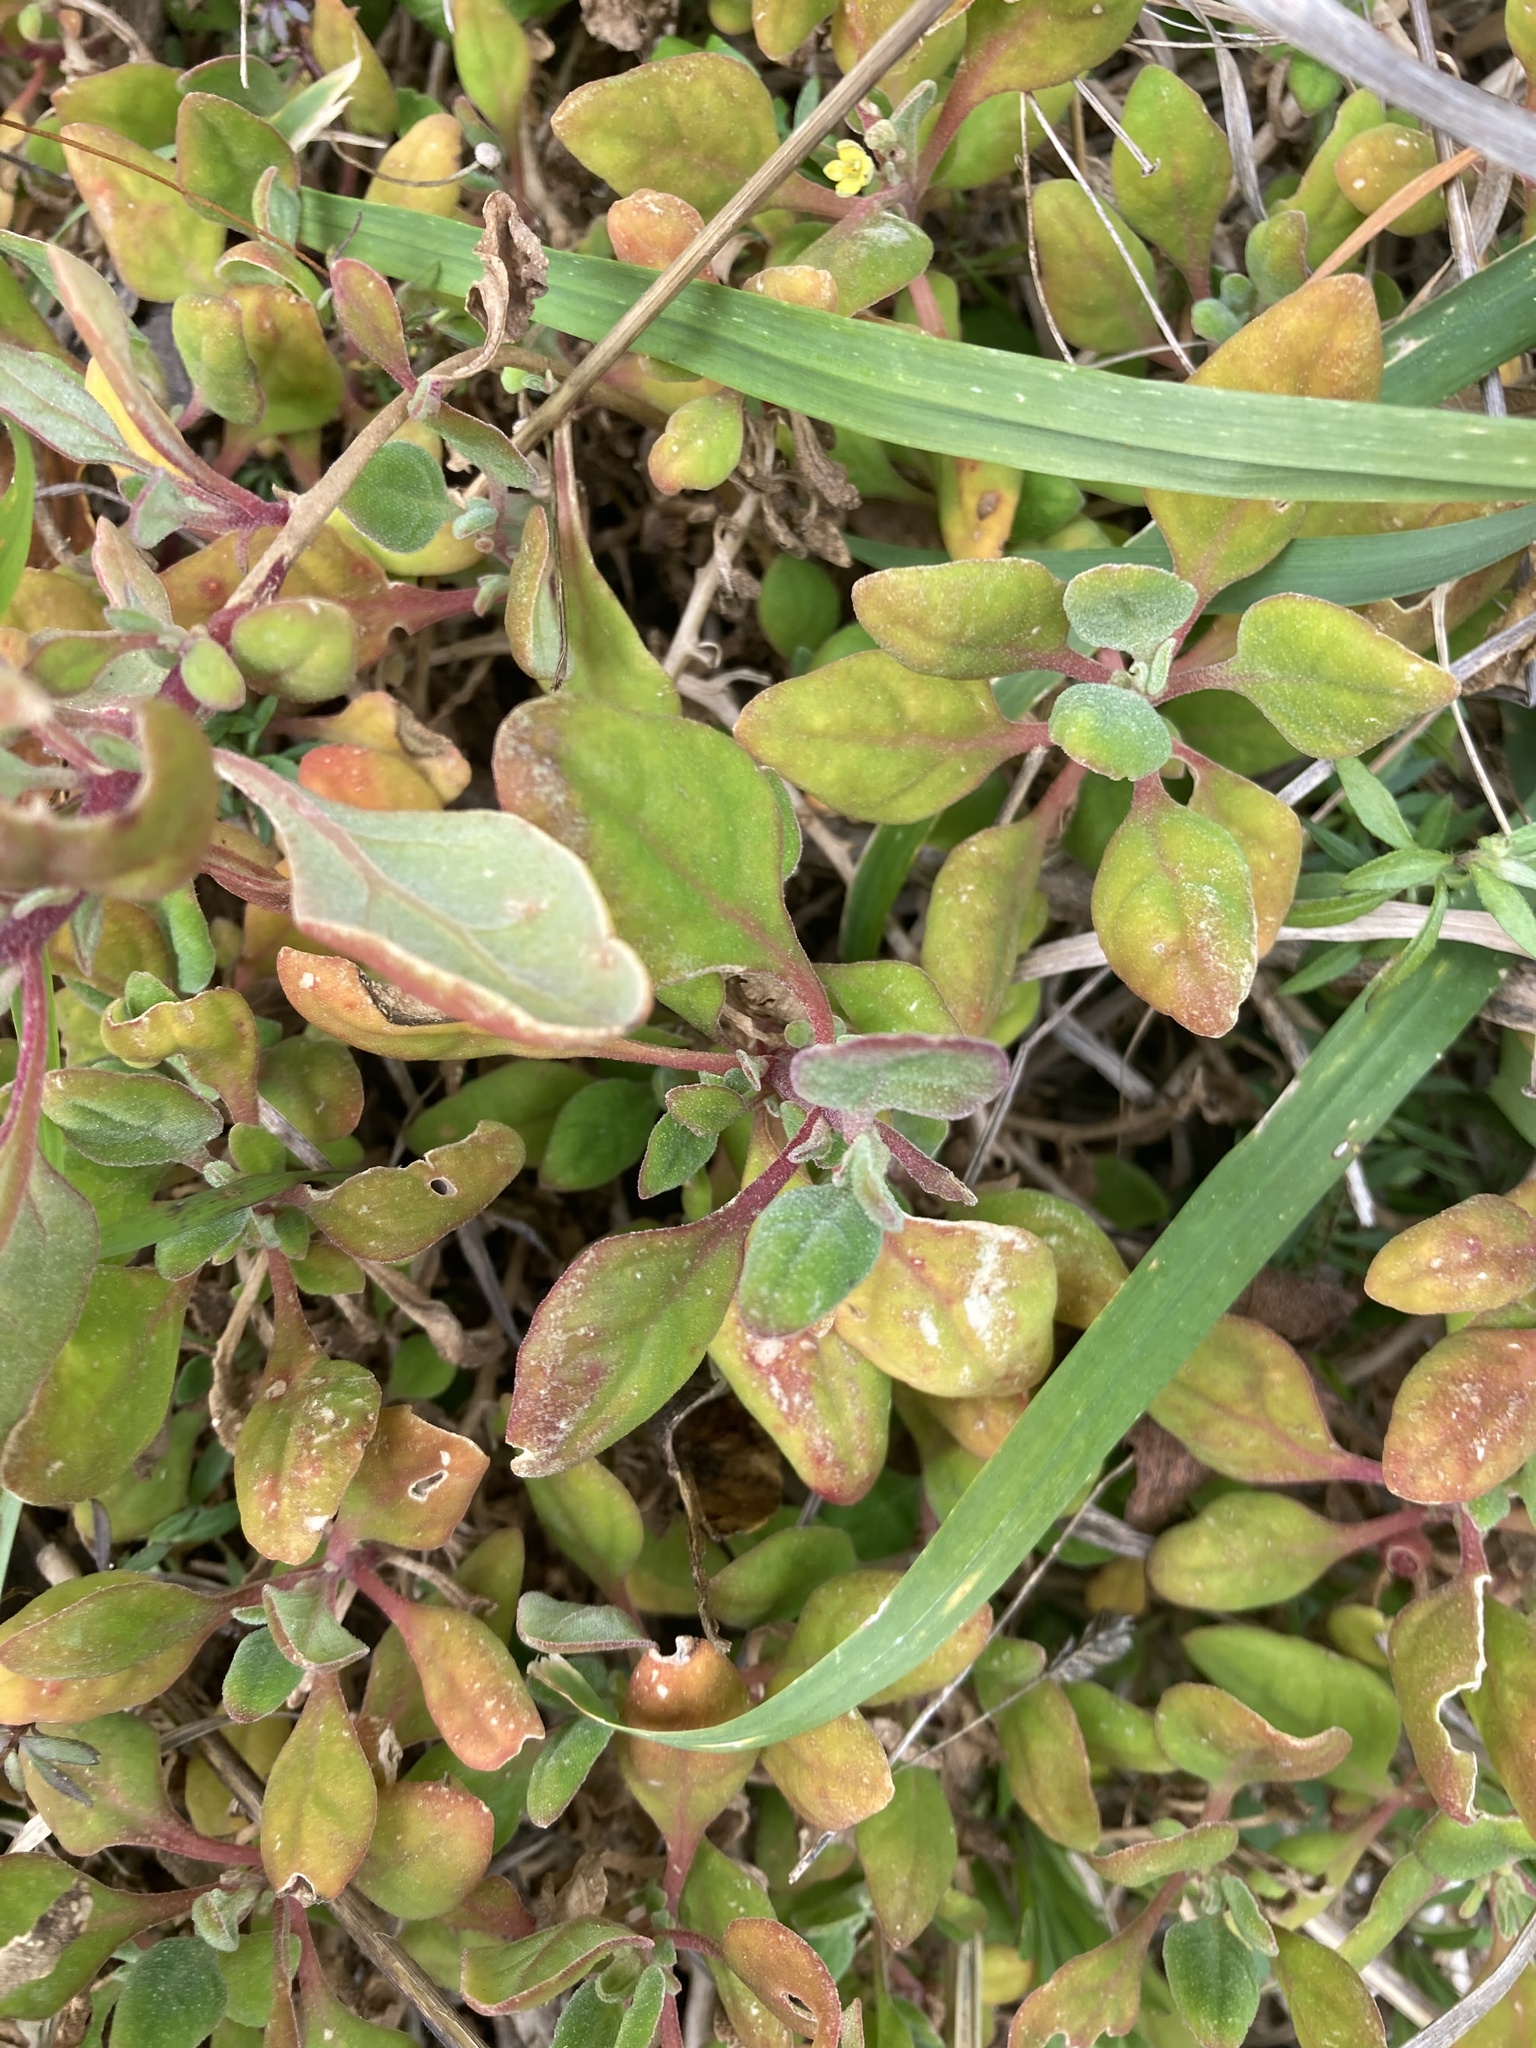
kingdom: Plantae
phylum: Tracheophyta
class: Magnoliopsida
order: Caryophyllales
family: Aizoaceae
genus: Tetragonia
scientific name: Tetragonia implexicoma
